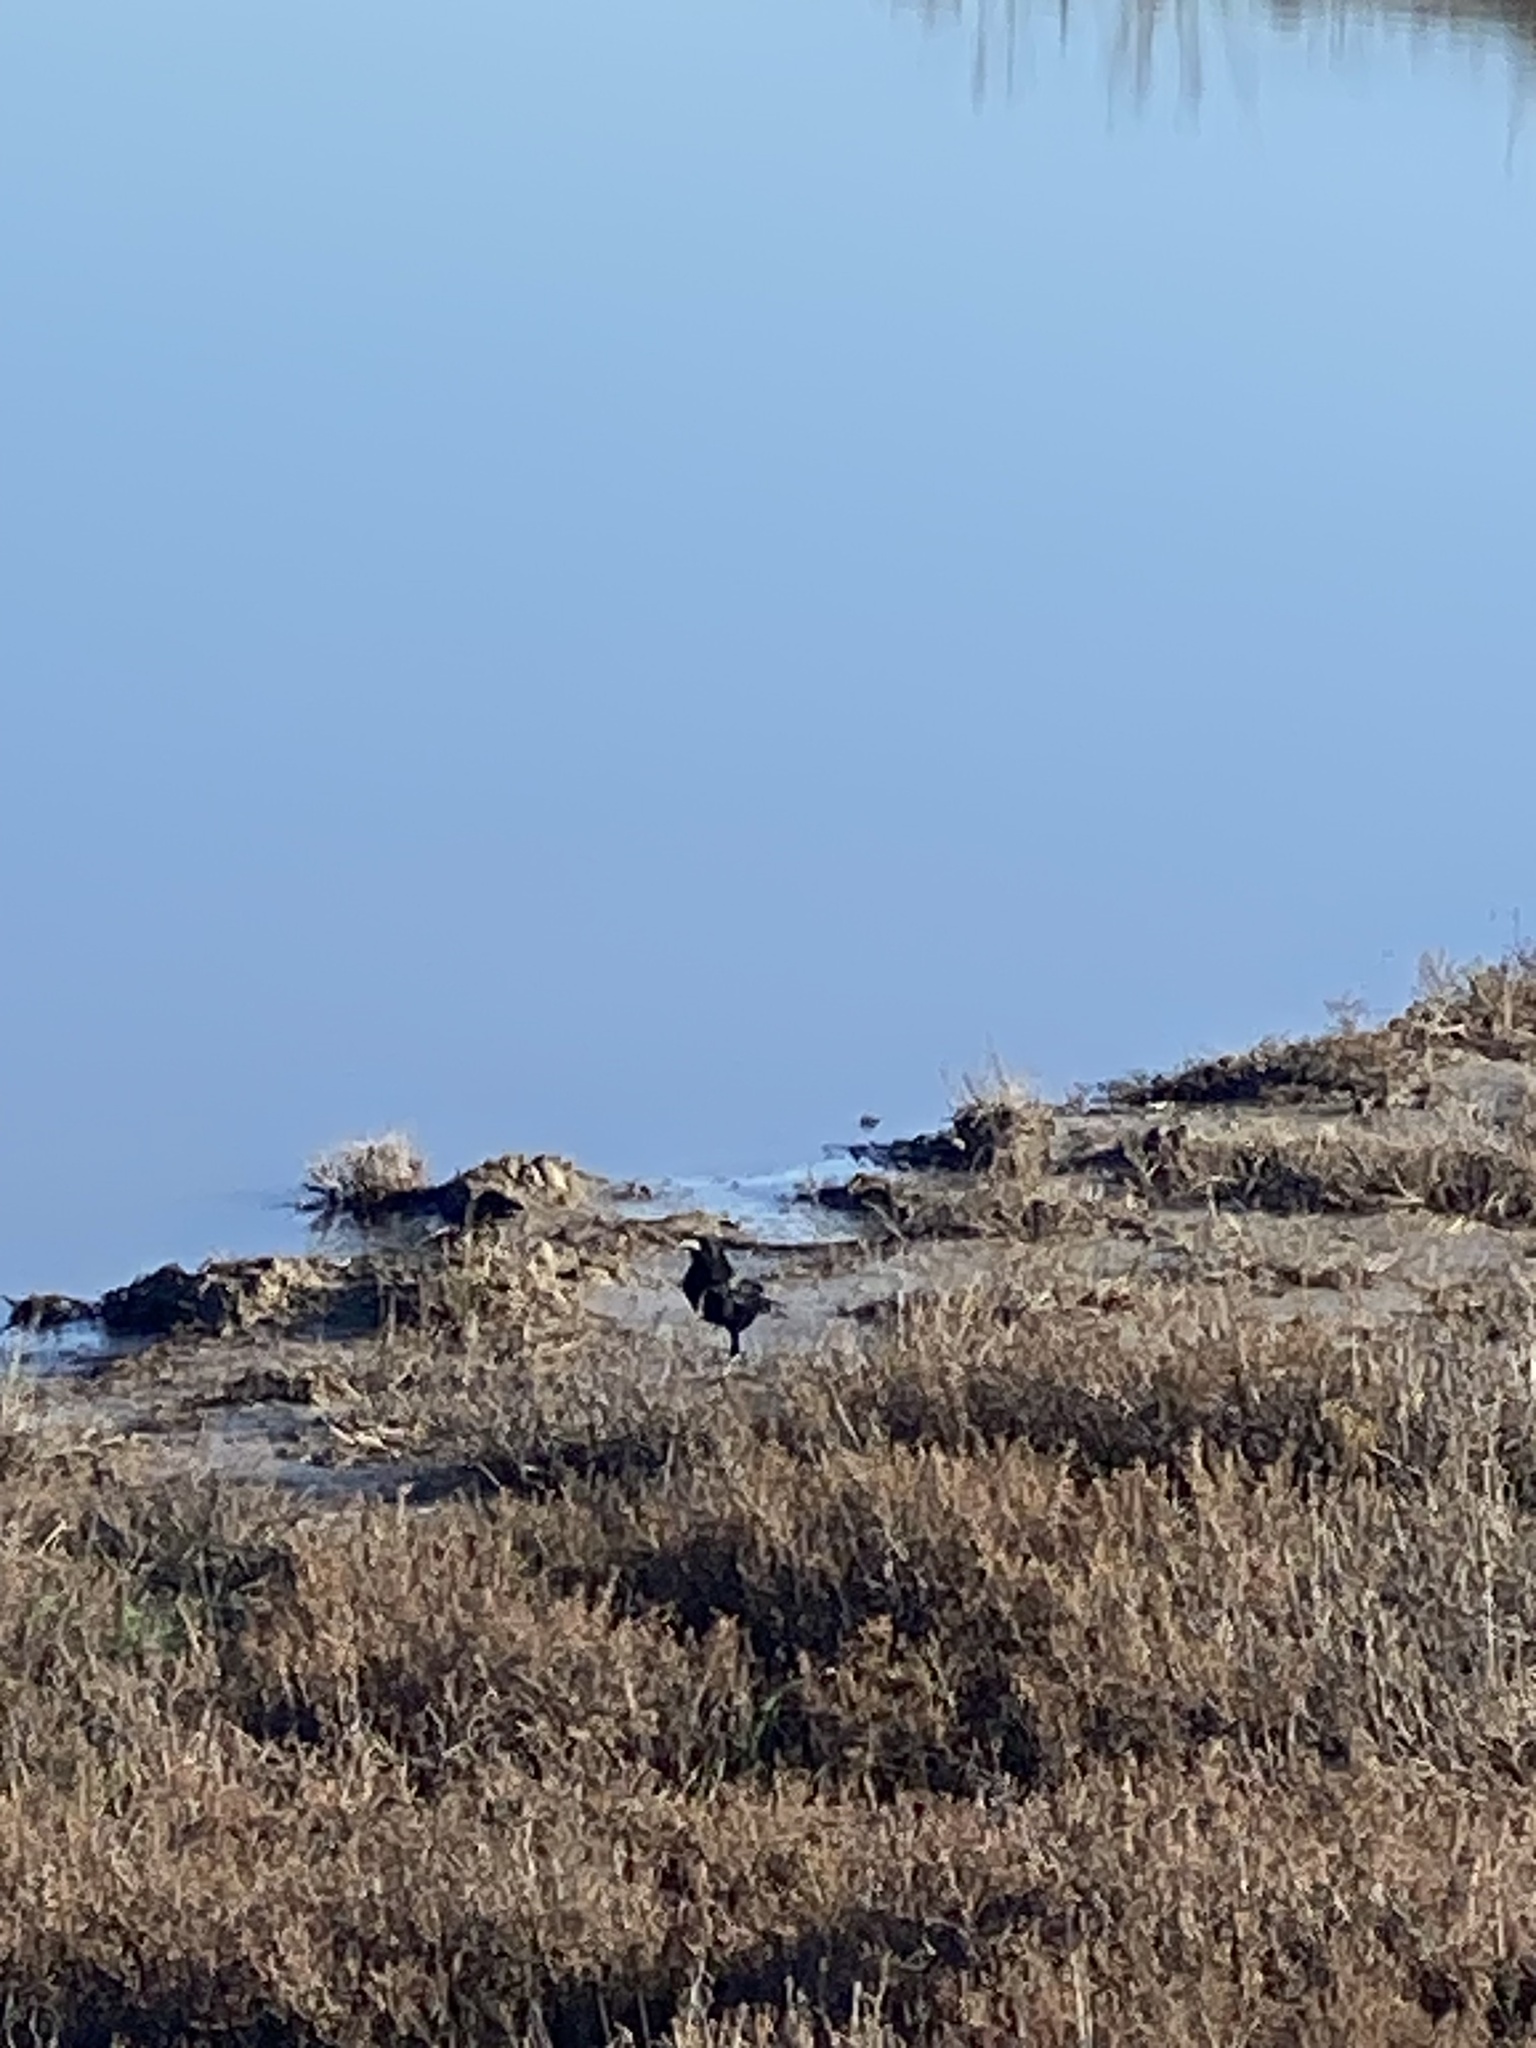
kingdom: Animalia
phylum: Chordata
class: Aves
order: Passeriformes
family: Corvidae
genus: Corvus
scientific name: Corvus corax
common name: Common raven
